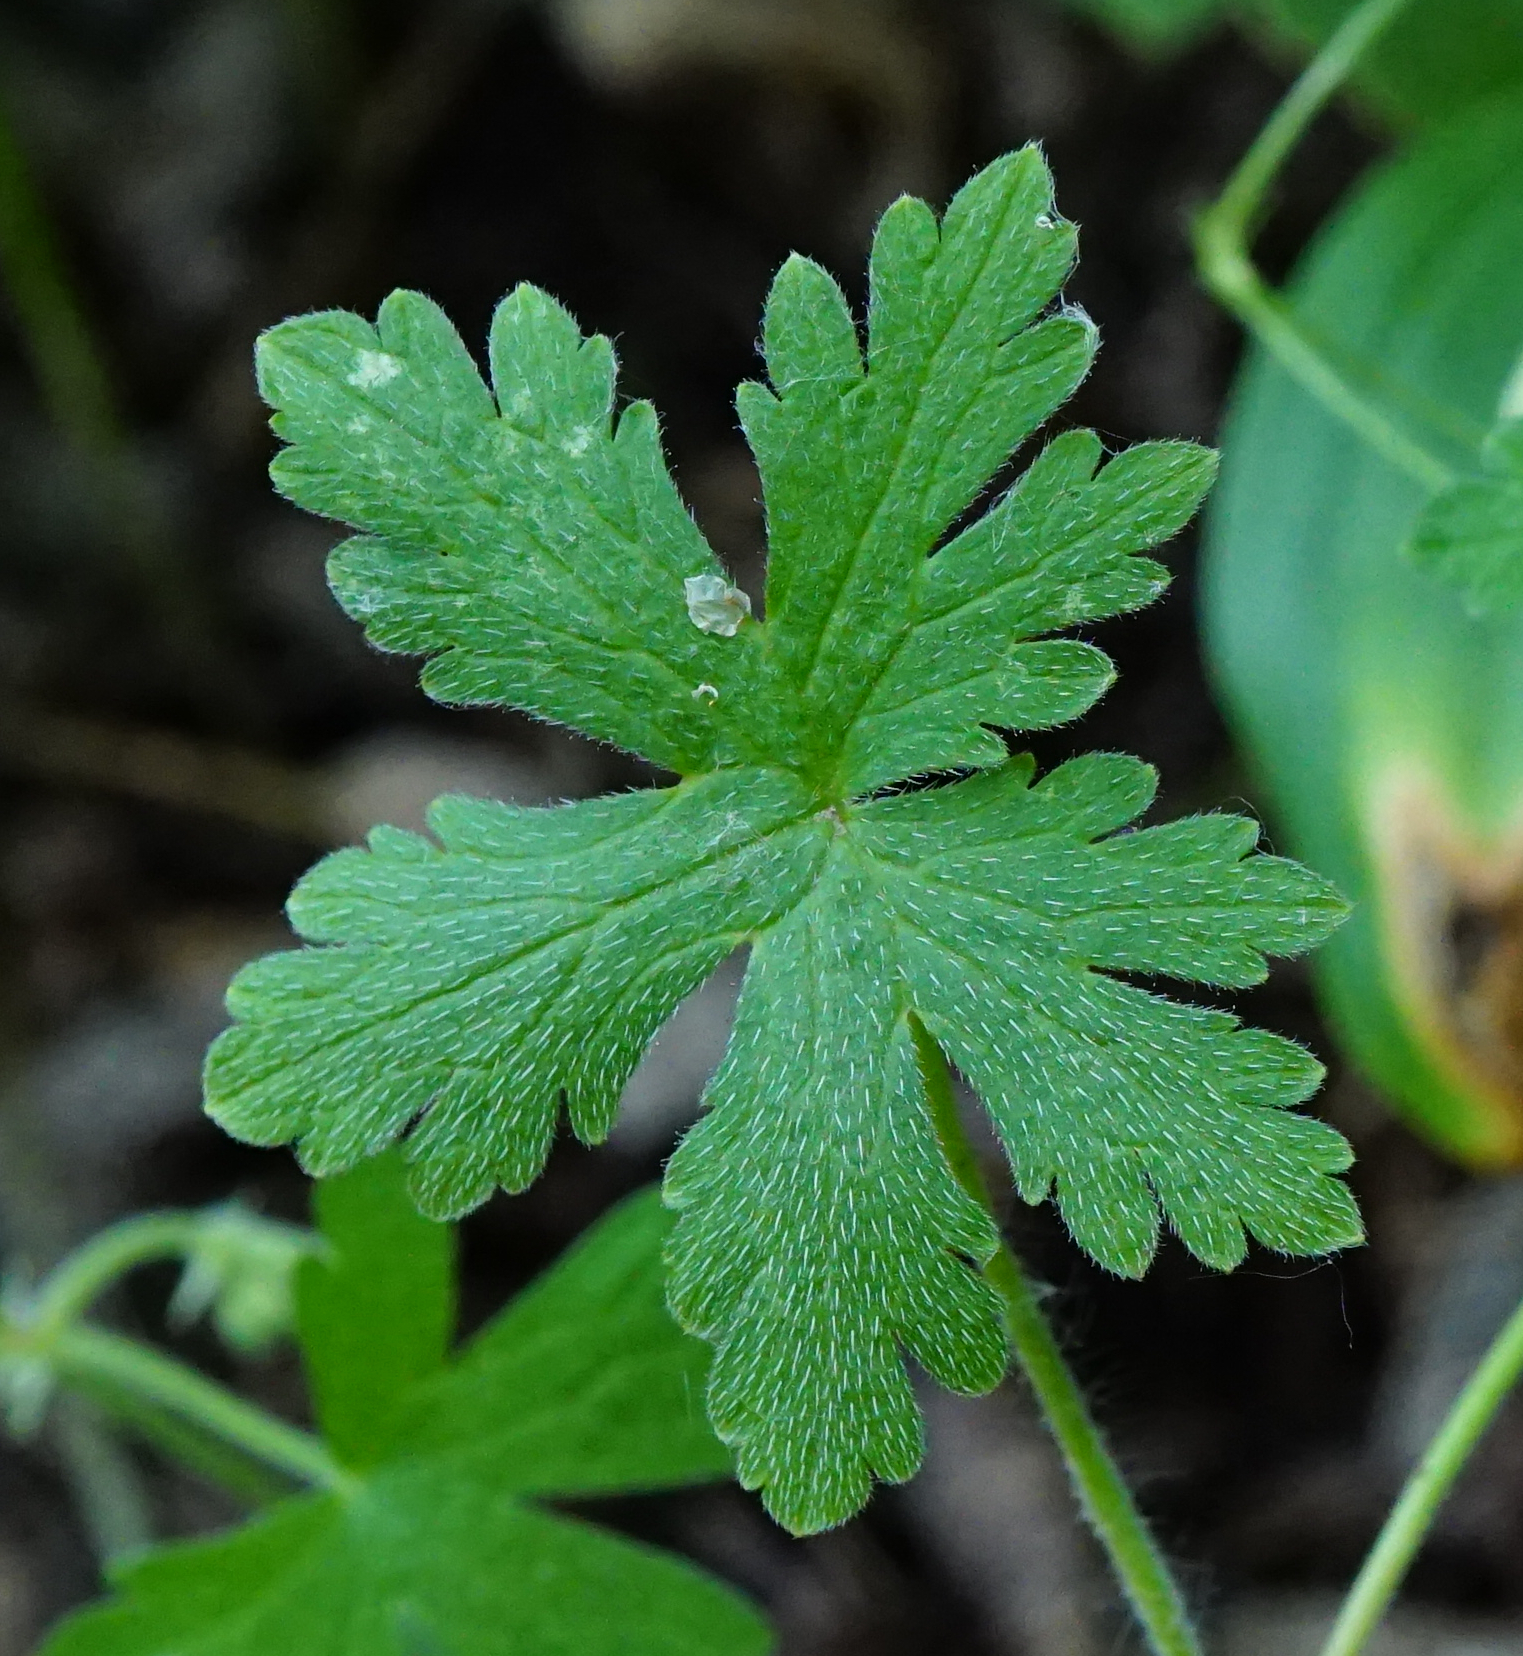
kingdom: Plantae
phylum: Tracheophyta
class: Magnoliopsida
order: Geraniales
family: Geraniaceae
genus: Geranium
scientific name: Geranium divaricatum
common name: Spreading crane's-bill
